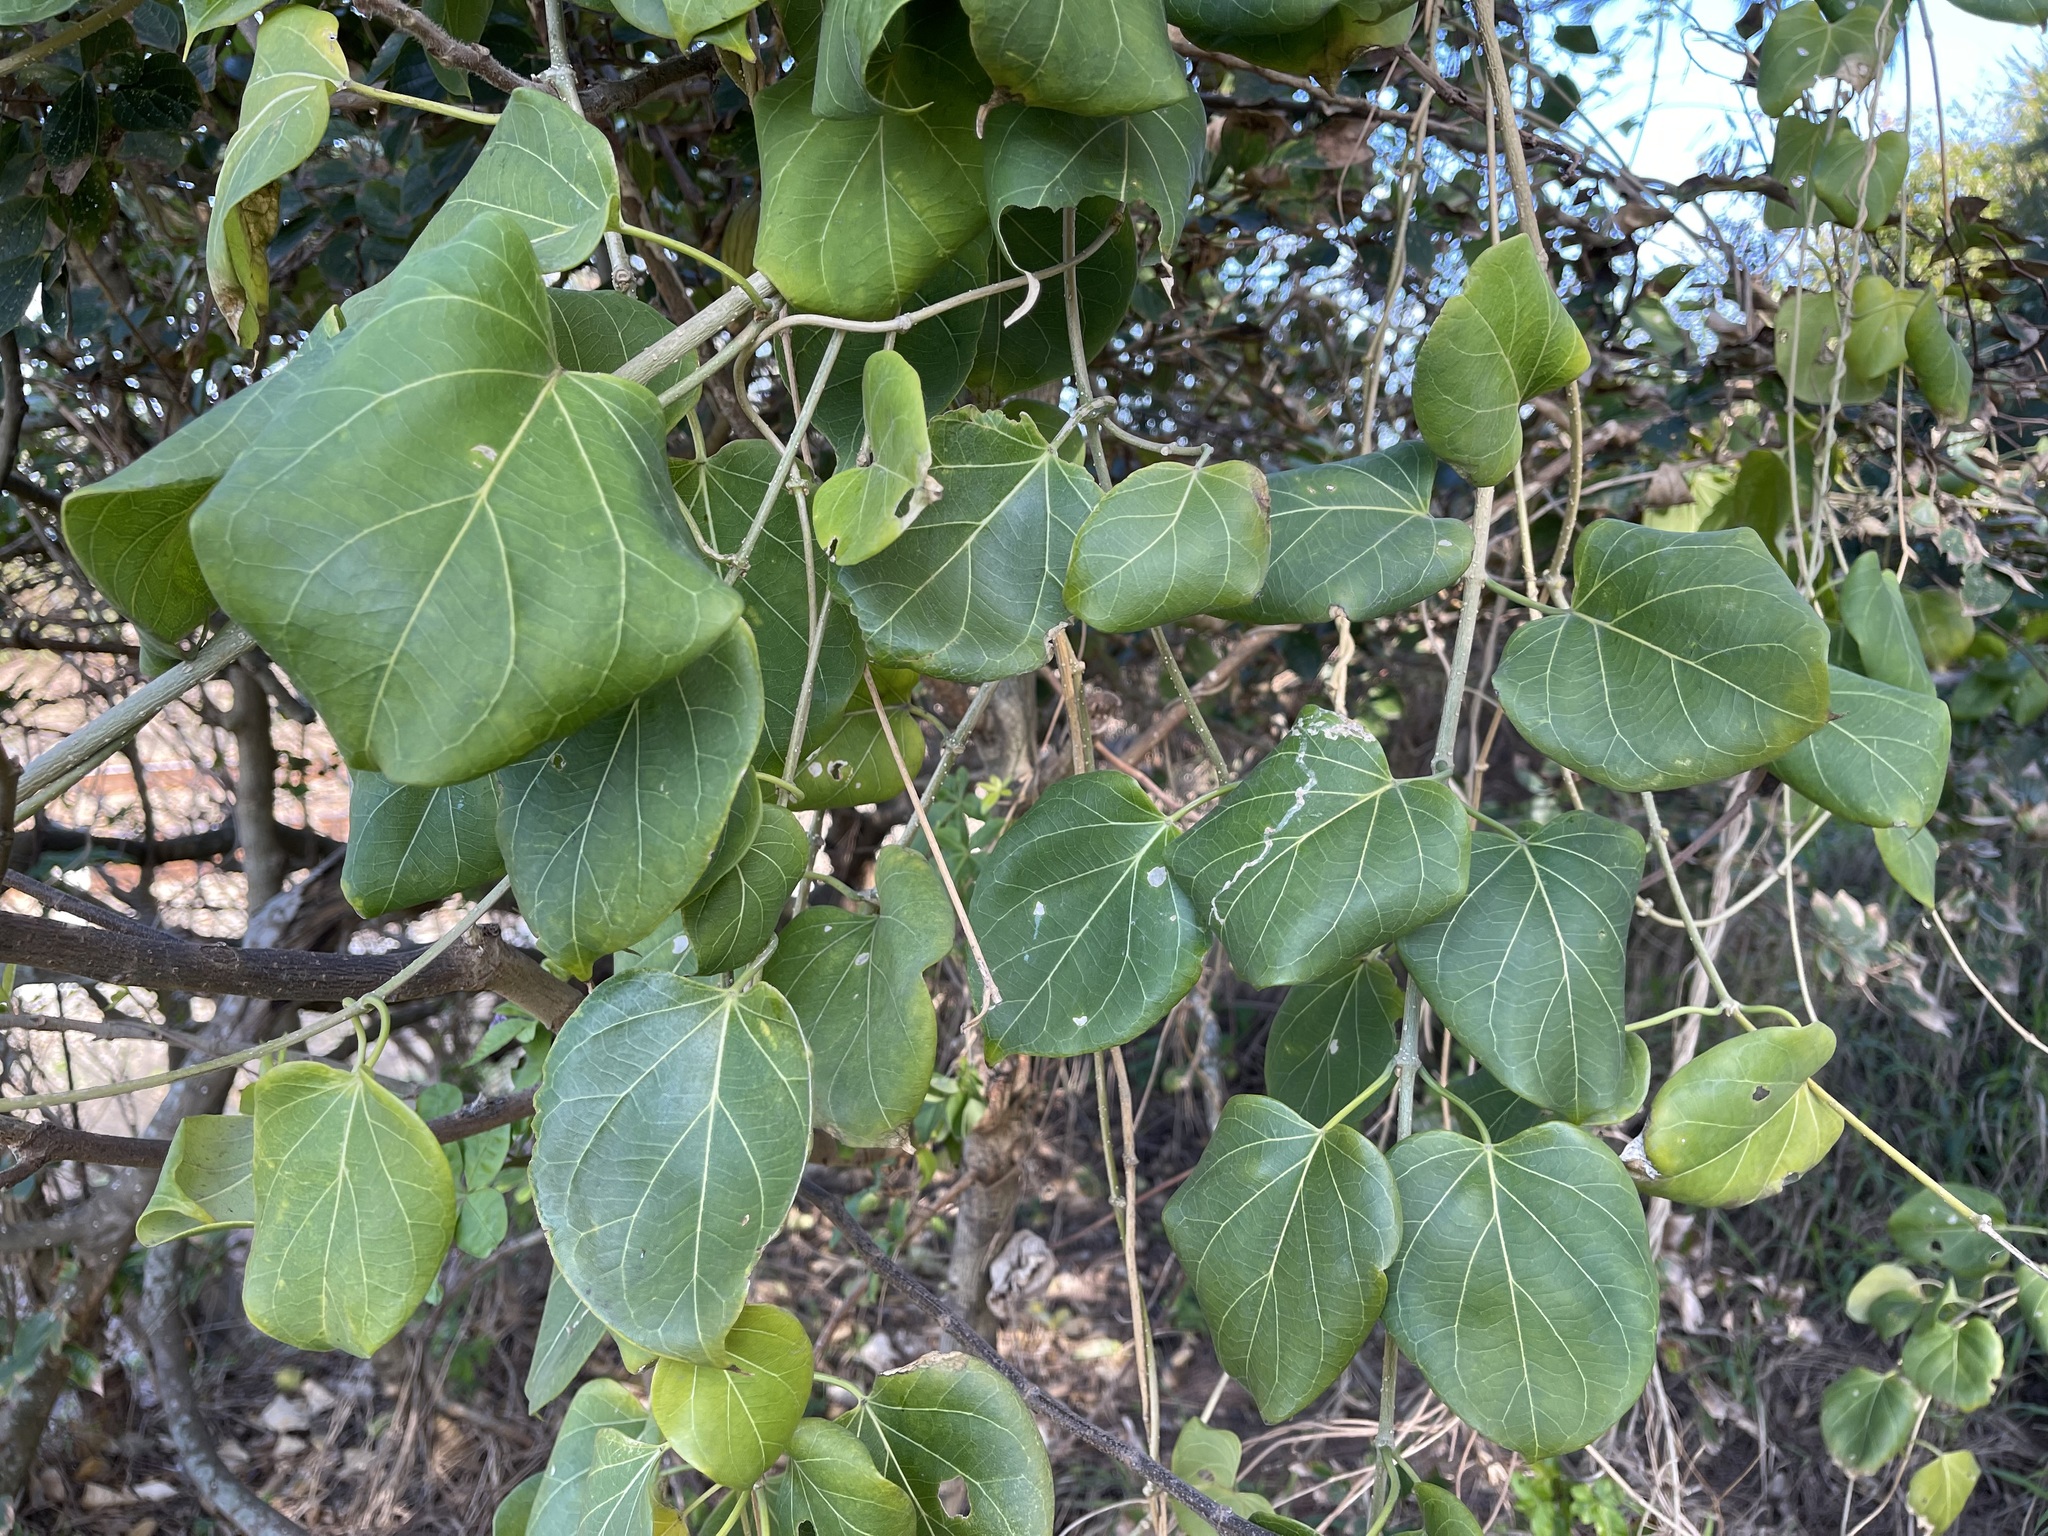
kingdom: Plantae
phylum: Tracheophyta
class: Magnoliopsida
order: Gentianales
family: Apocynaceae
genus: Stephanotis
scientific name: Stephanotis volubilis
